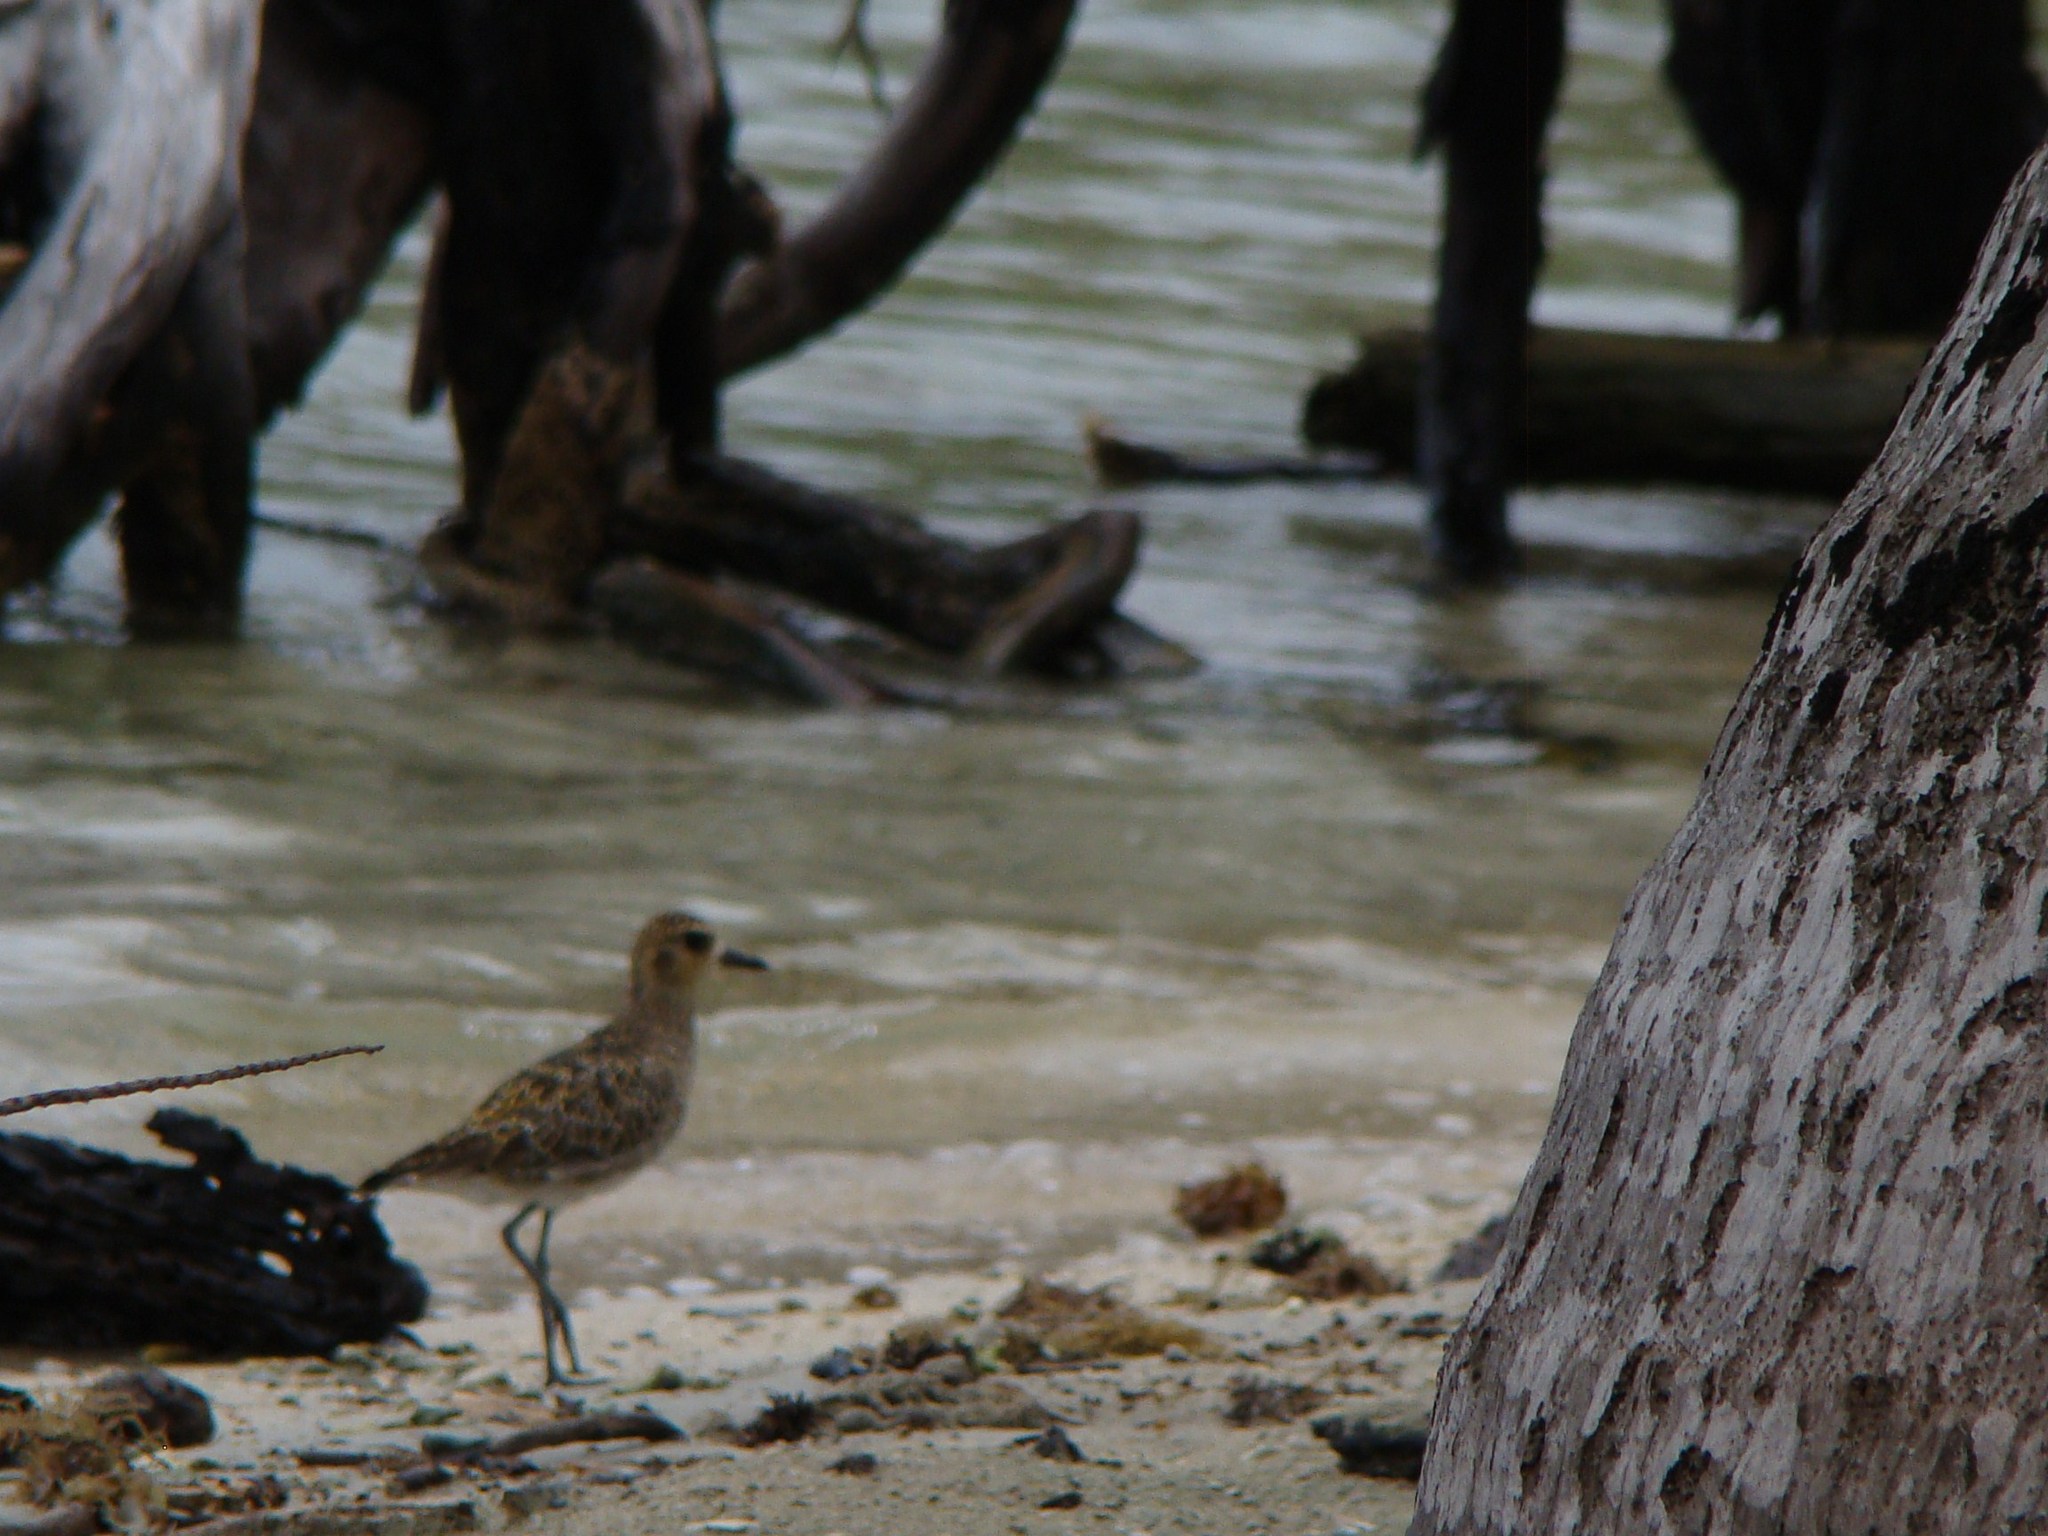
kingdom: Animalia
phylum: Chordata
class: Aves
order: Charadriiformes
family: Charadriidae
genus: Pluvialis
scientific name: Pluvialis fulva
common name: Pacific golden plover
